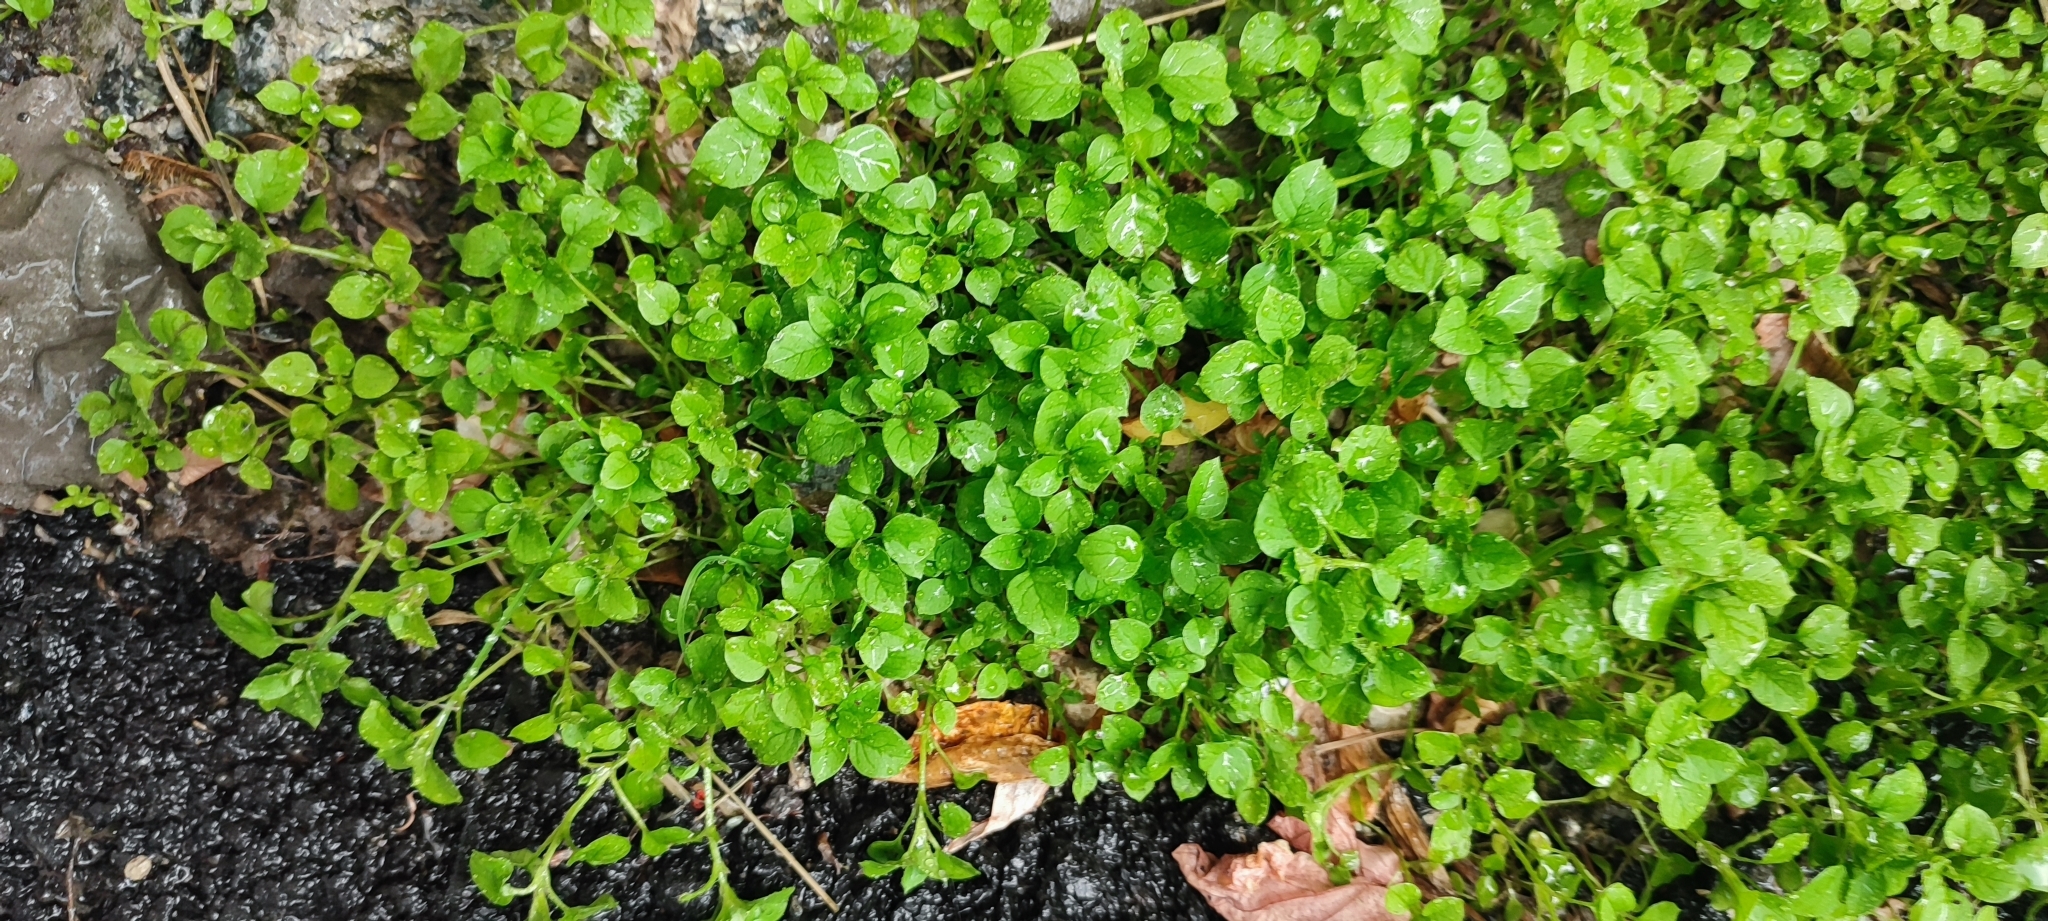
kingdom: Plantae
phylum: Tracheophyta
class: Magnoliopsida
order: Caryophyllales
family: Caryophyllaceae
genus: Stellaria
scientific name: Stellaria media
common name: Common chickweed
